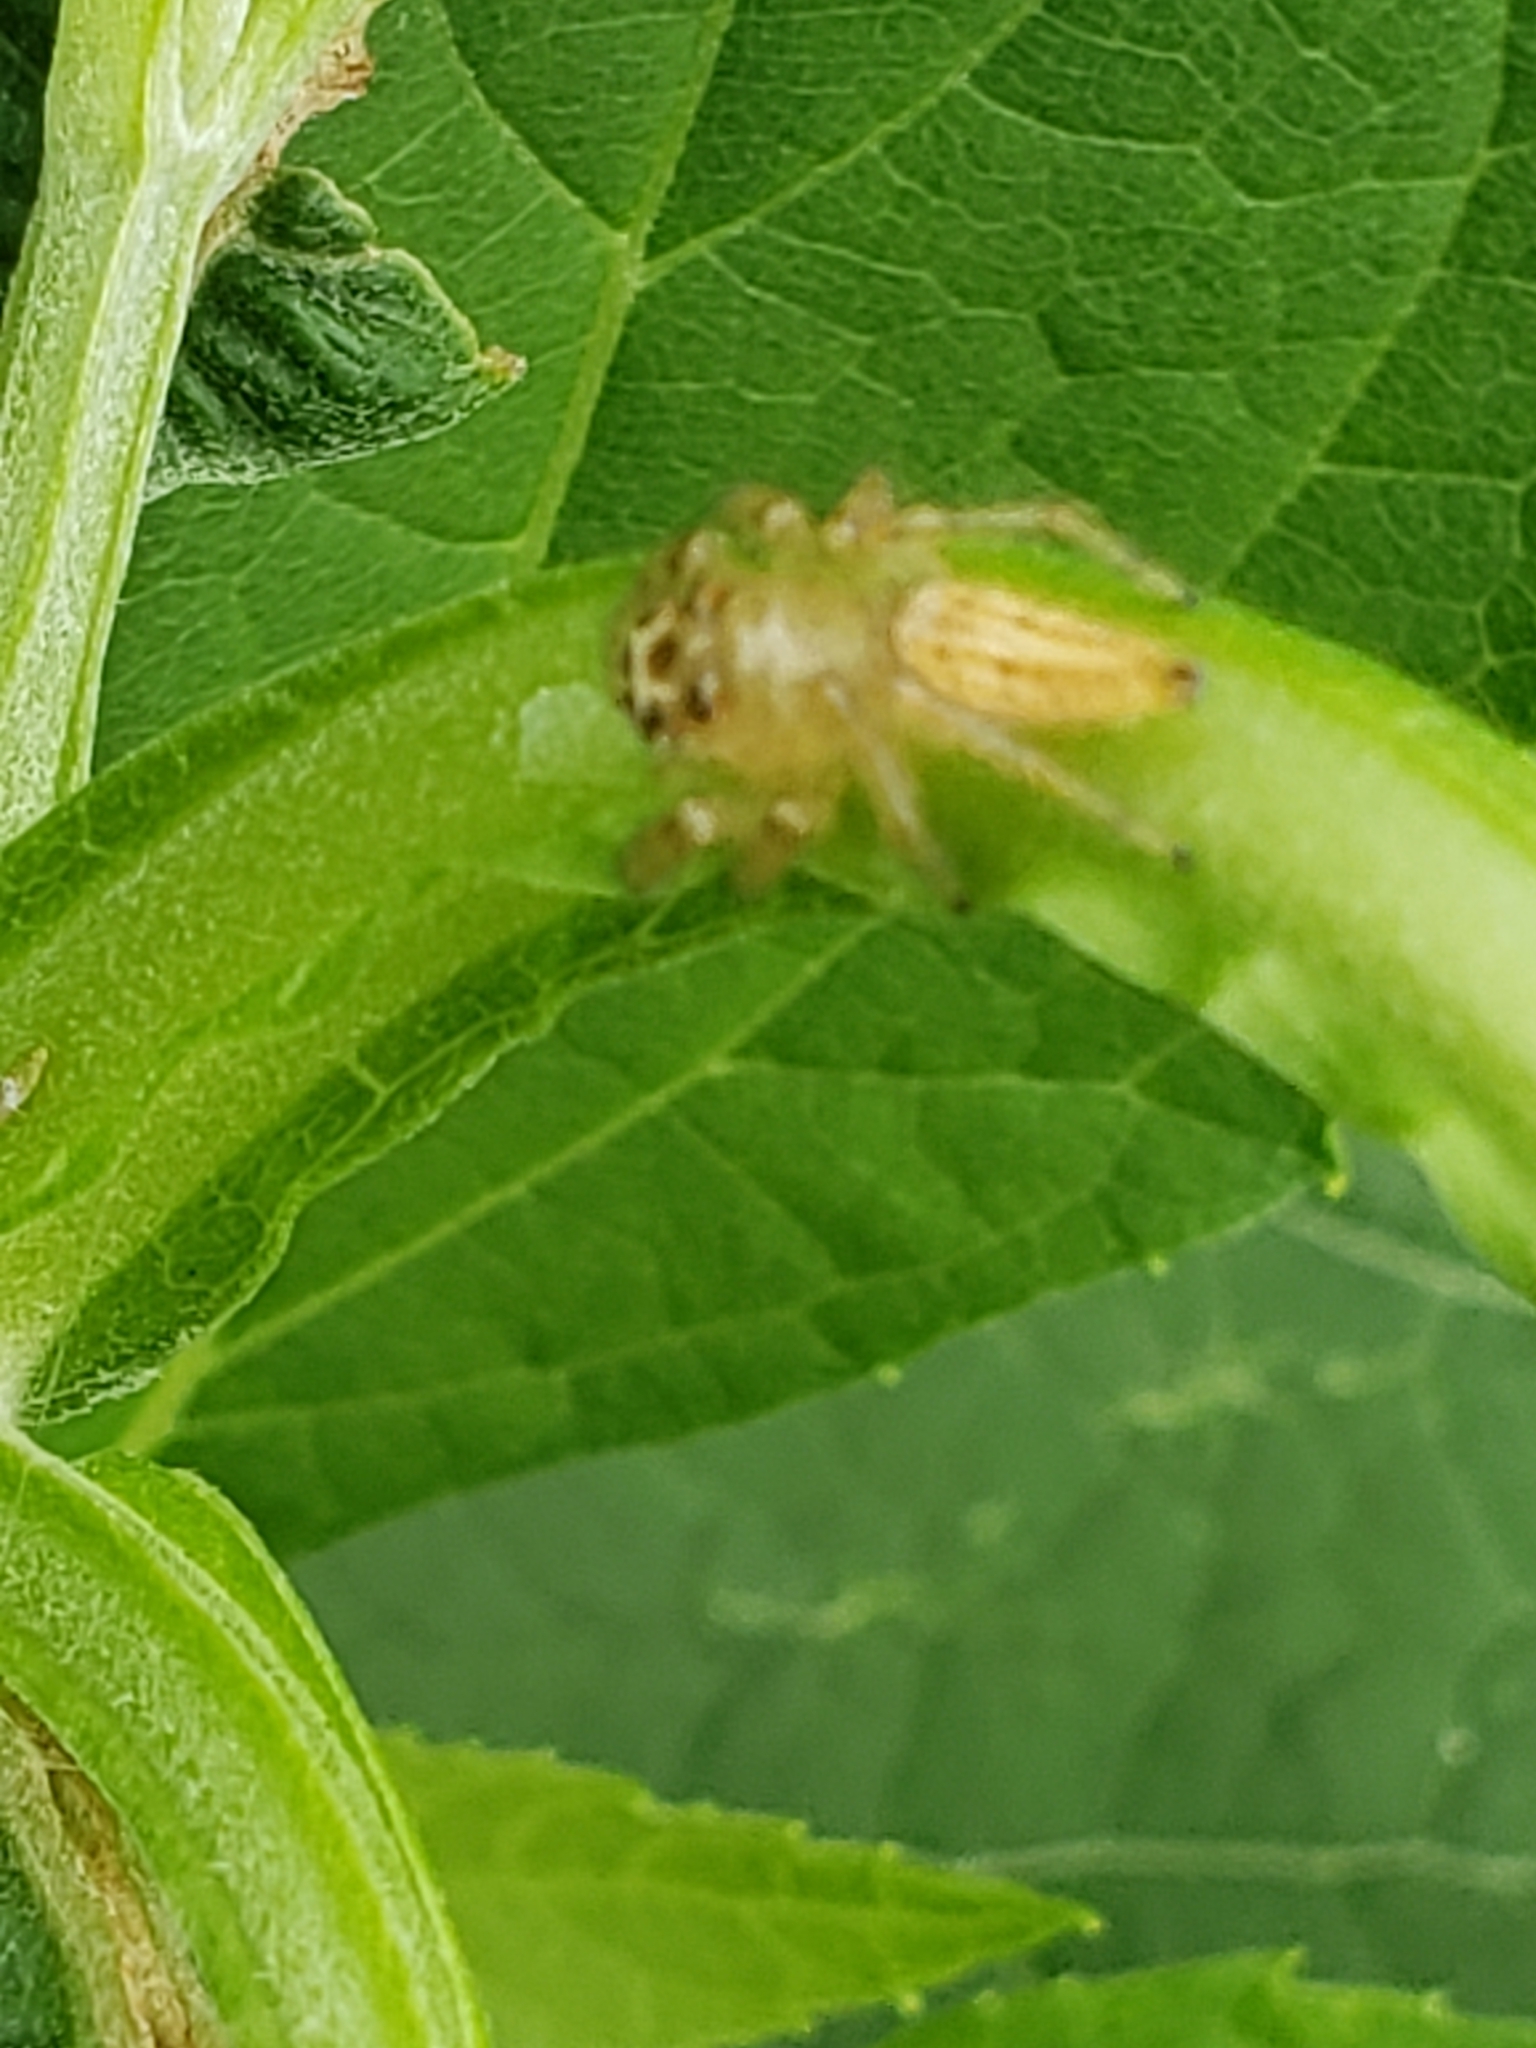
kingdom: Animalia
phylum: Arthropoda
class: Arachnida
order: Araneae
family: Salticidae
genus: Colonus
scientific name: Colonus sylvanus
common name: Jumping spiders
